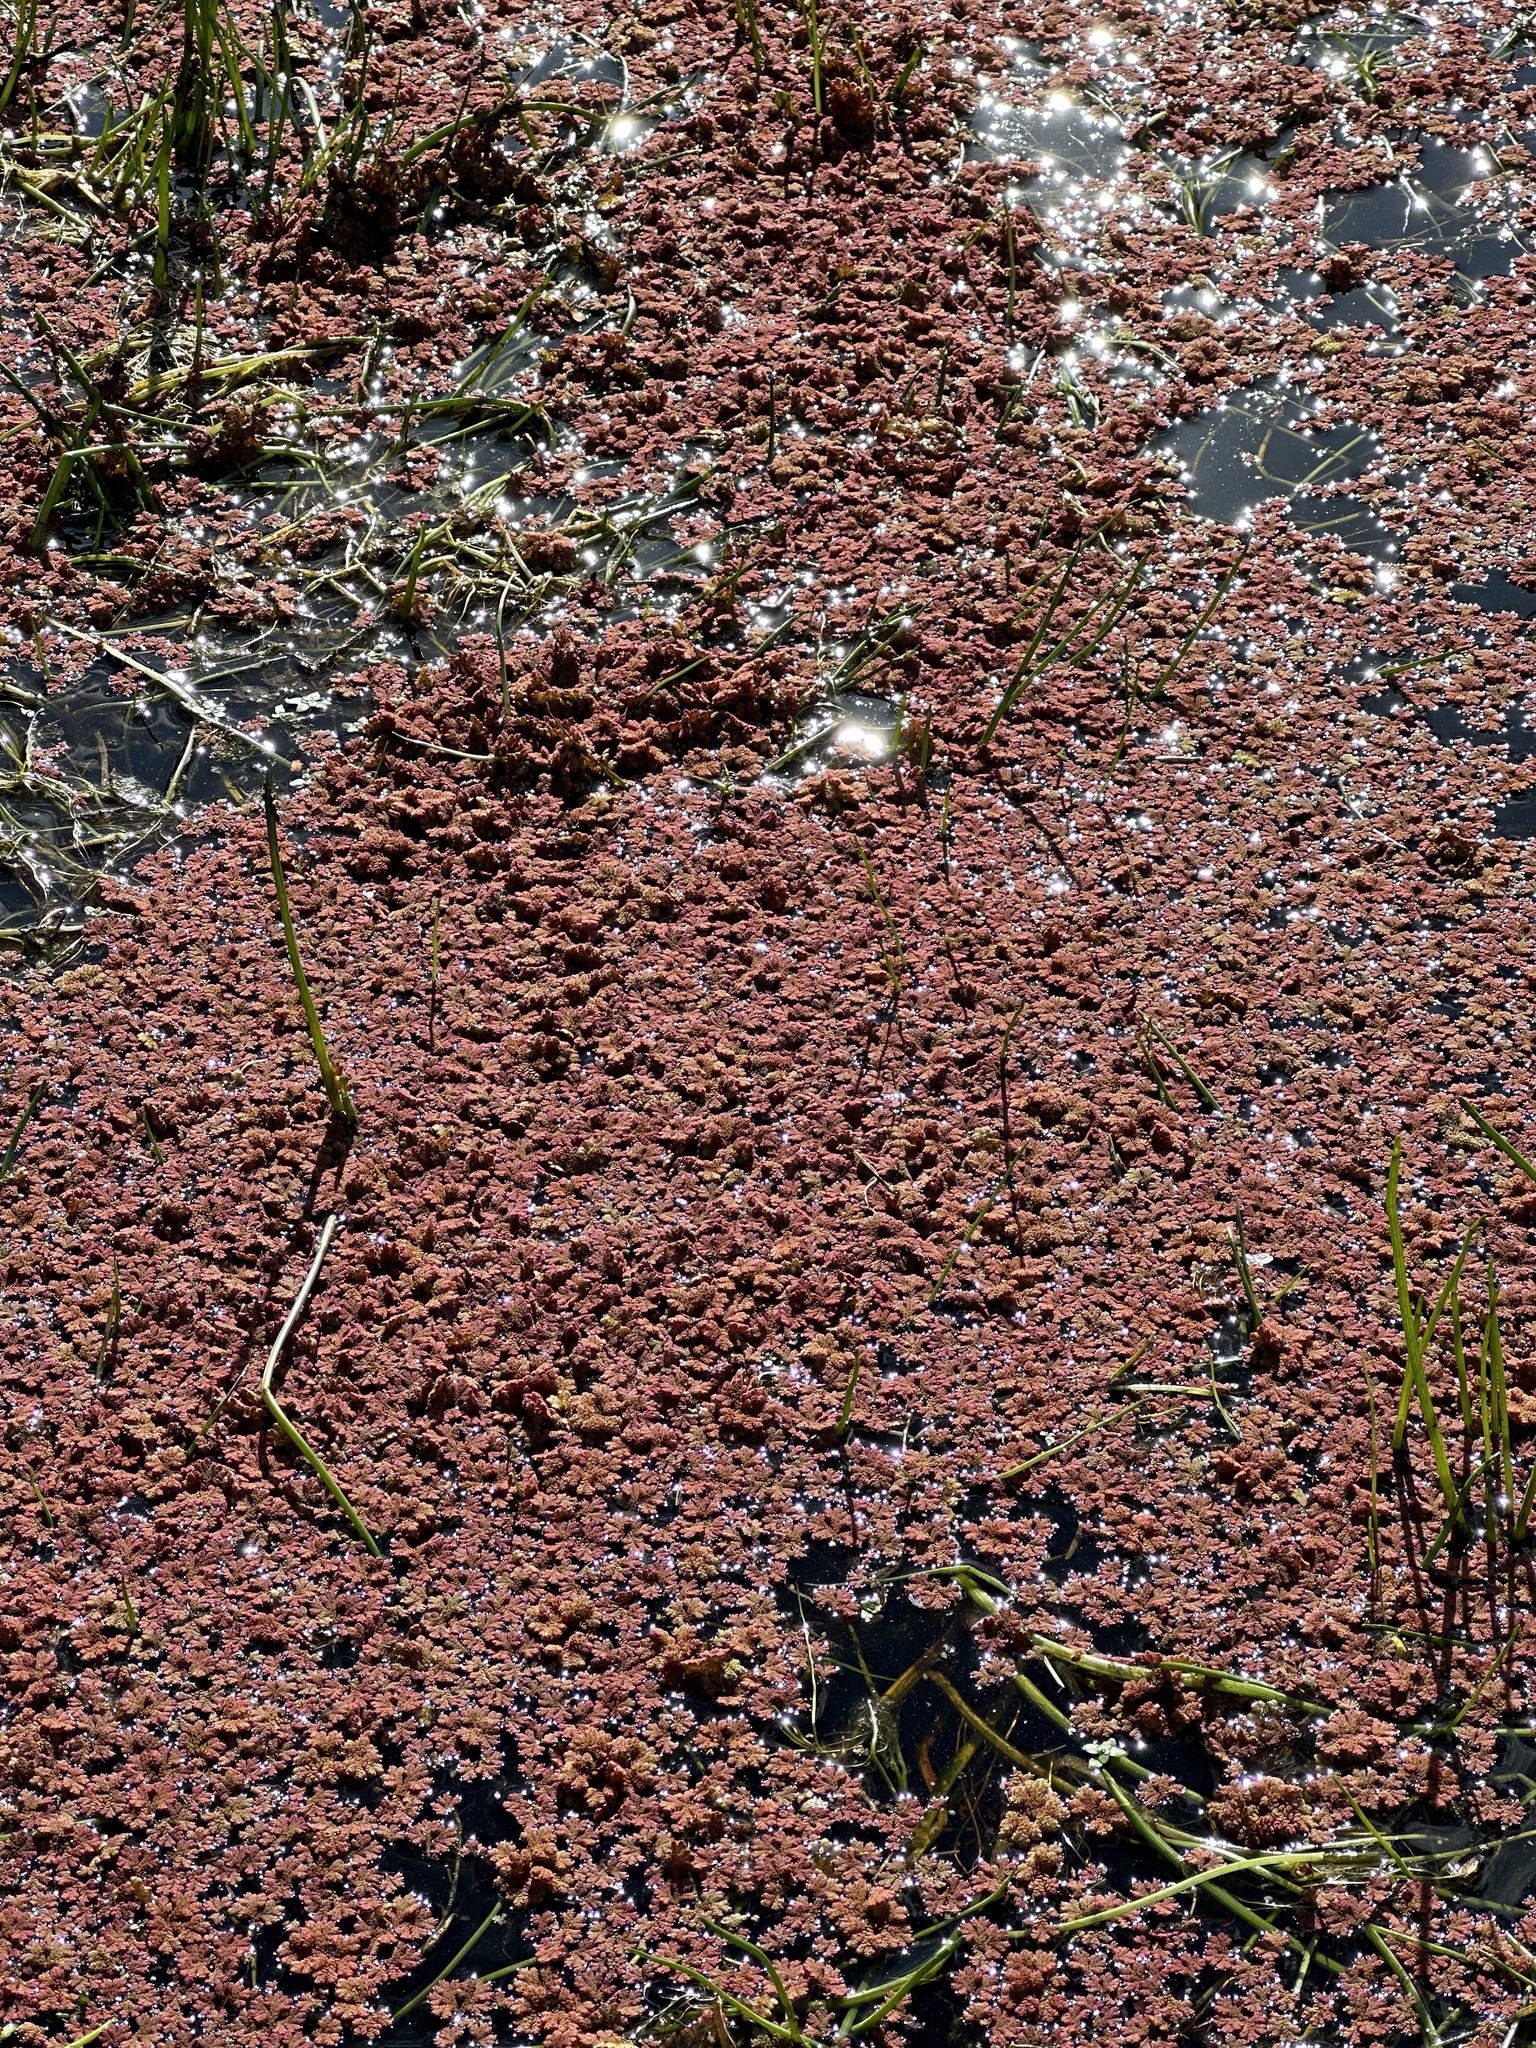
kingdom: Plantae
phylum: Tracheophyta
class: Polypodiopsida
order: Salviniales
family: Salviniaceae
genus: Azolla
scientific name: Azolla rubra
